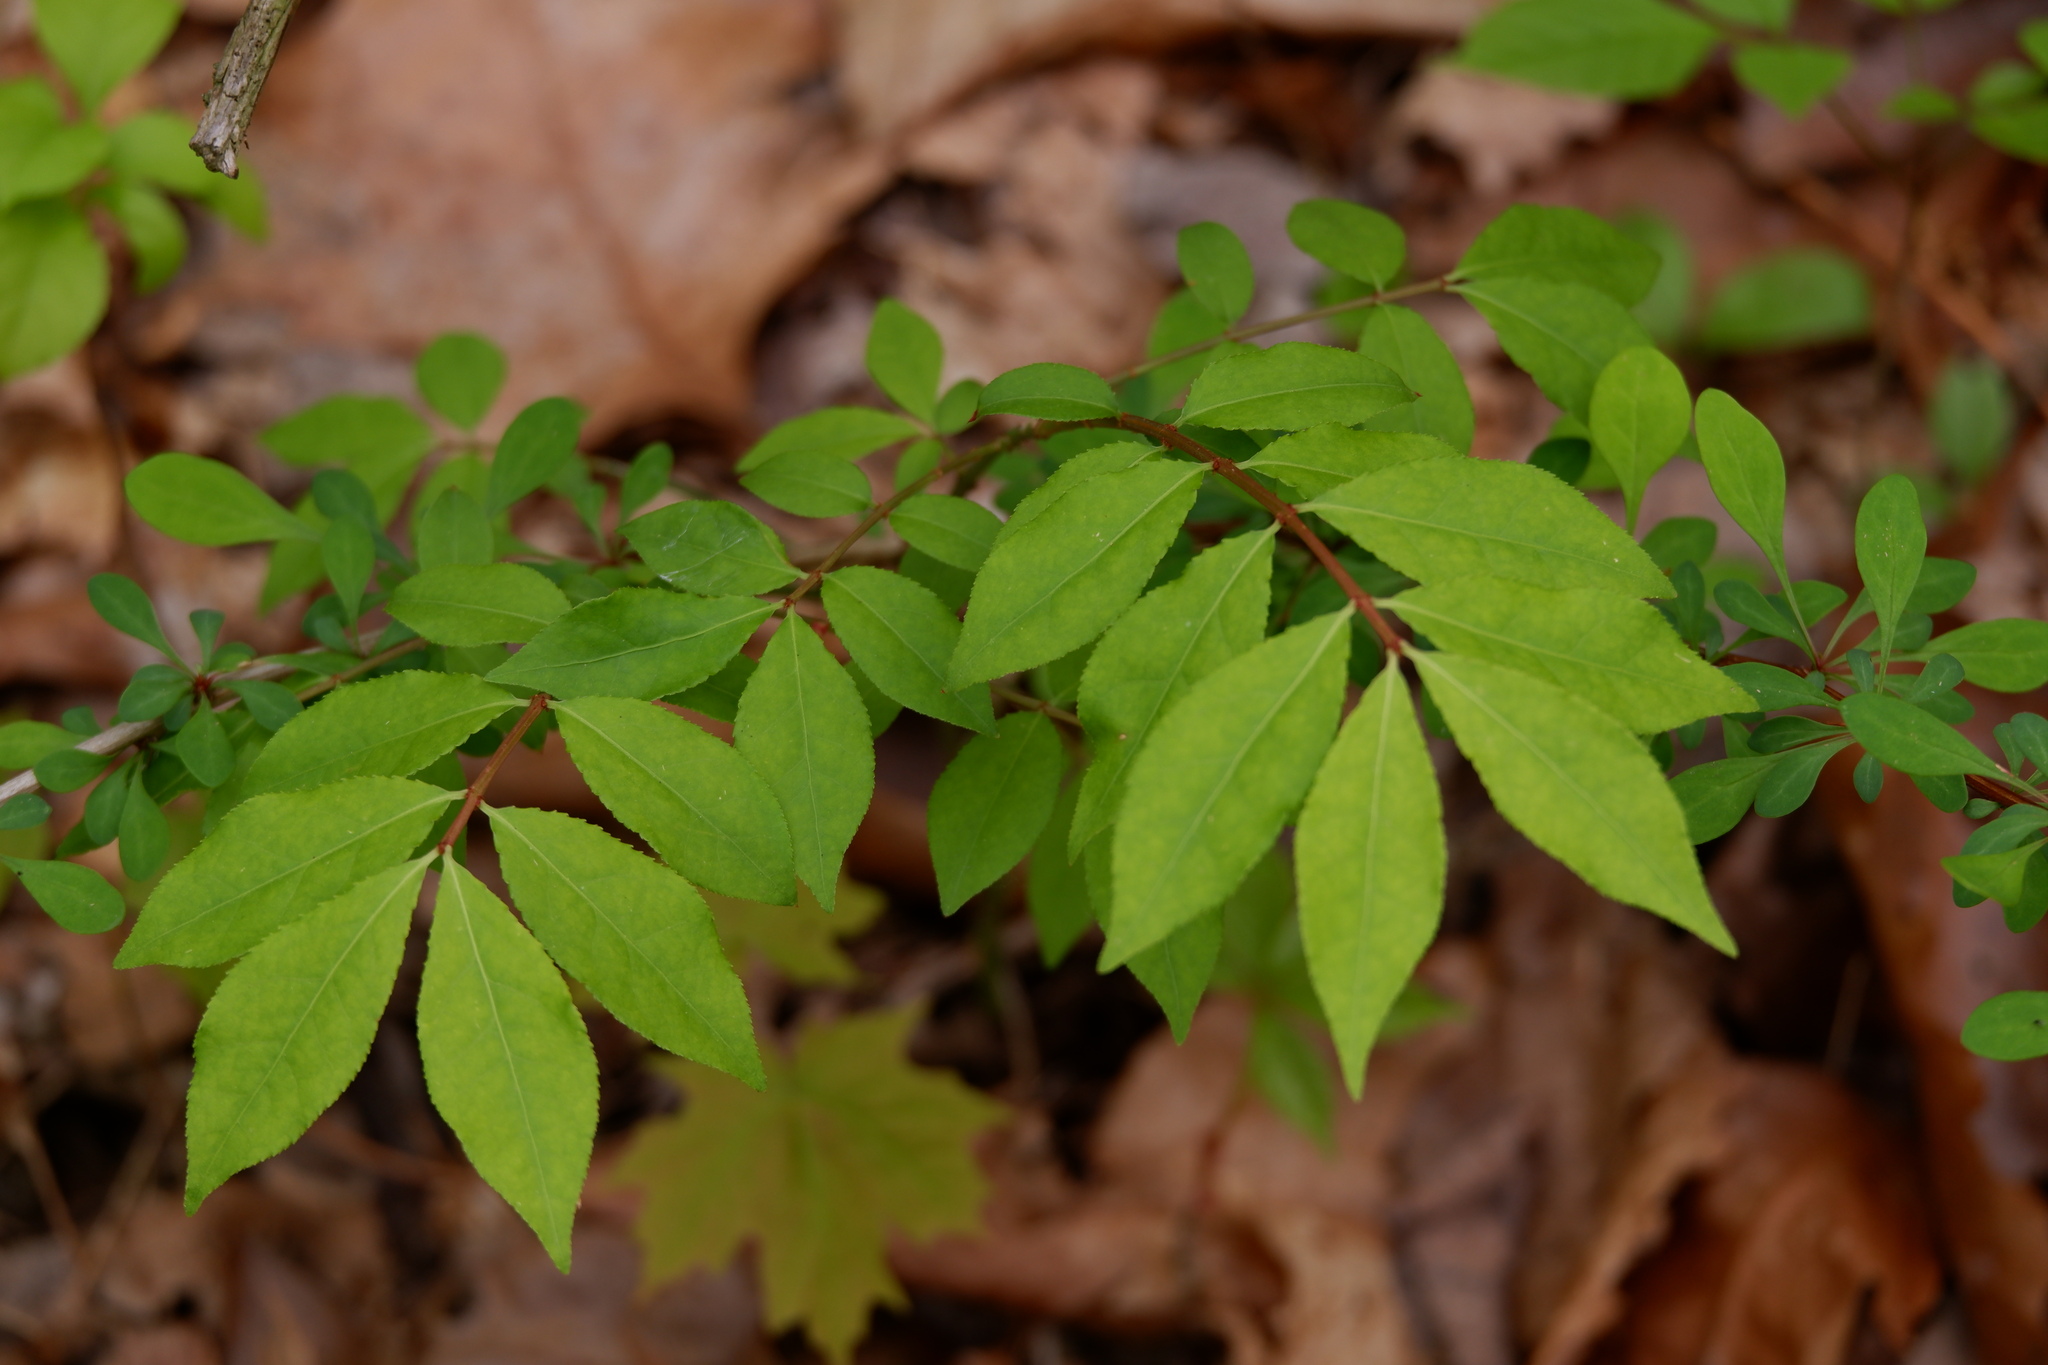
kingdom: Plantae
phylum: Tracheophyta
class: Magnoliopsida
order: Celastrales
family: Celastraceae
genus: Euonymus
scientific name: Euonymus alatus
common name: Winged euonymus
